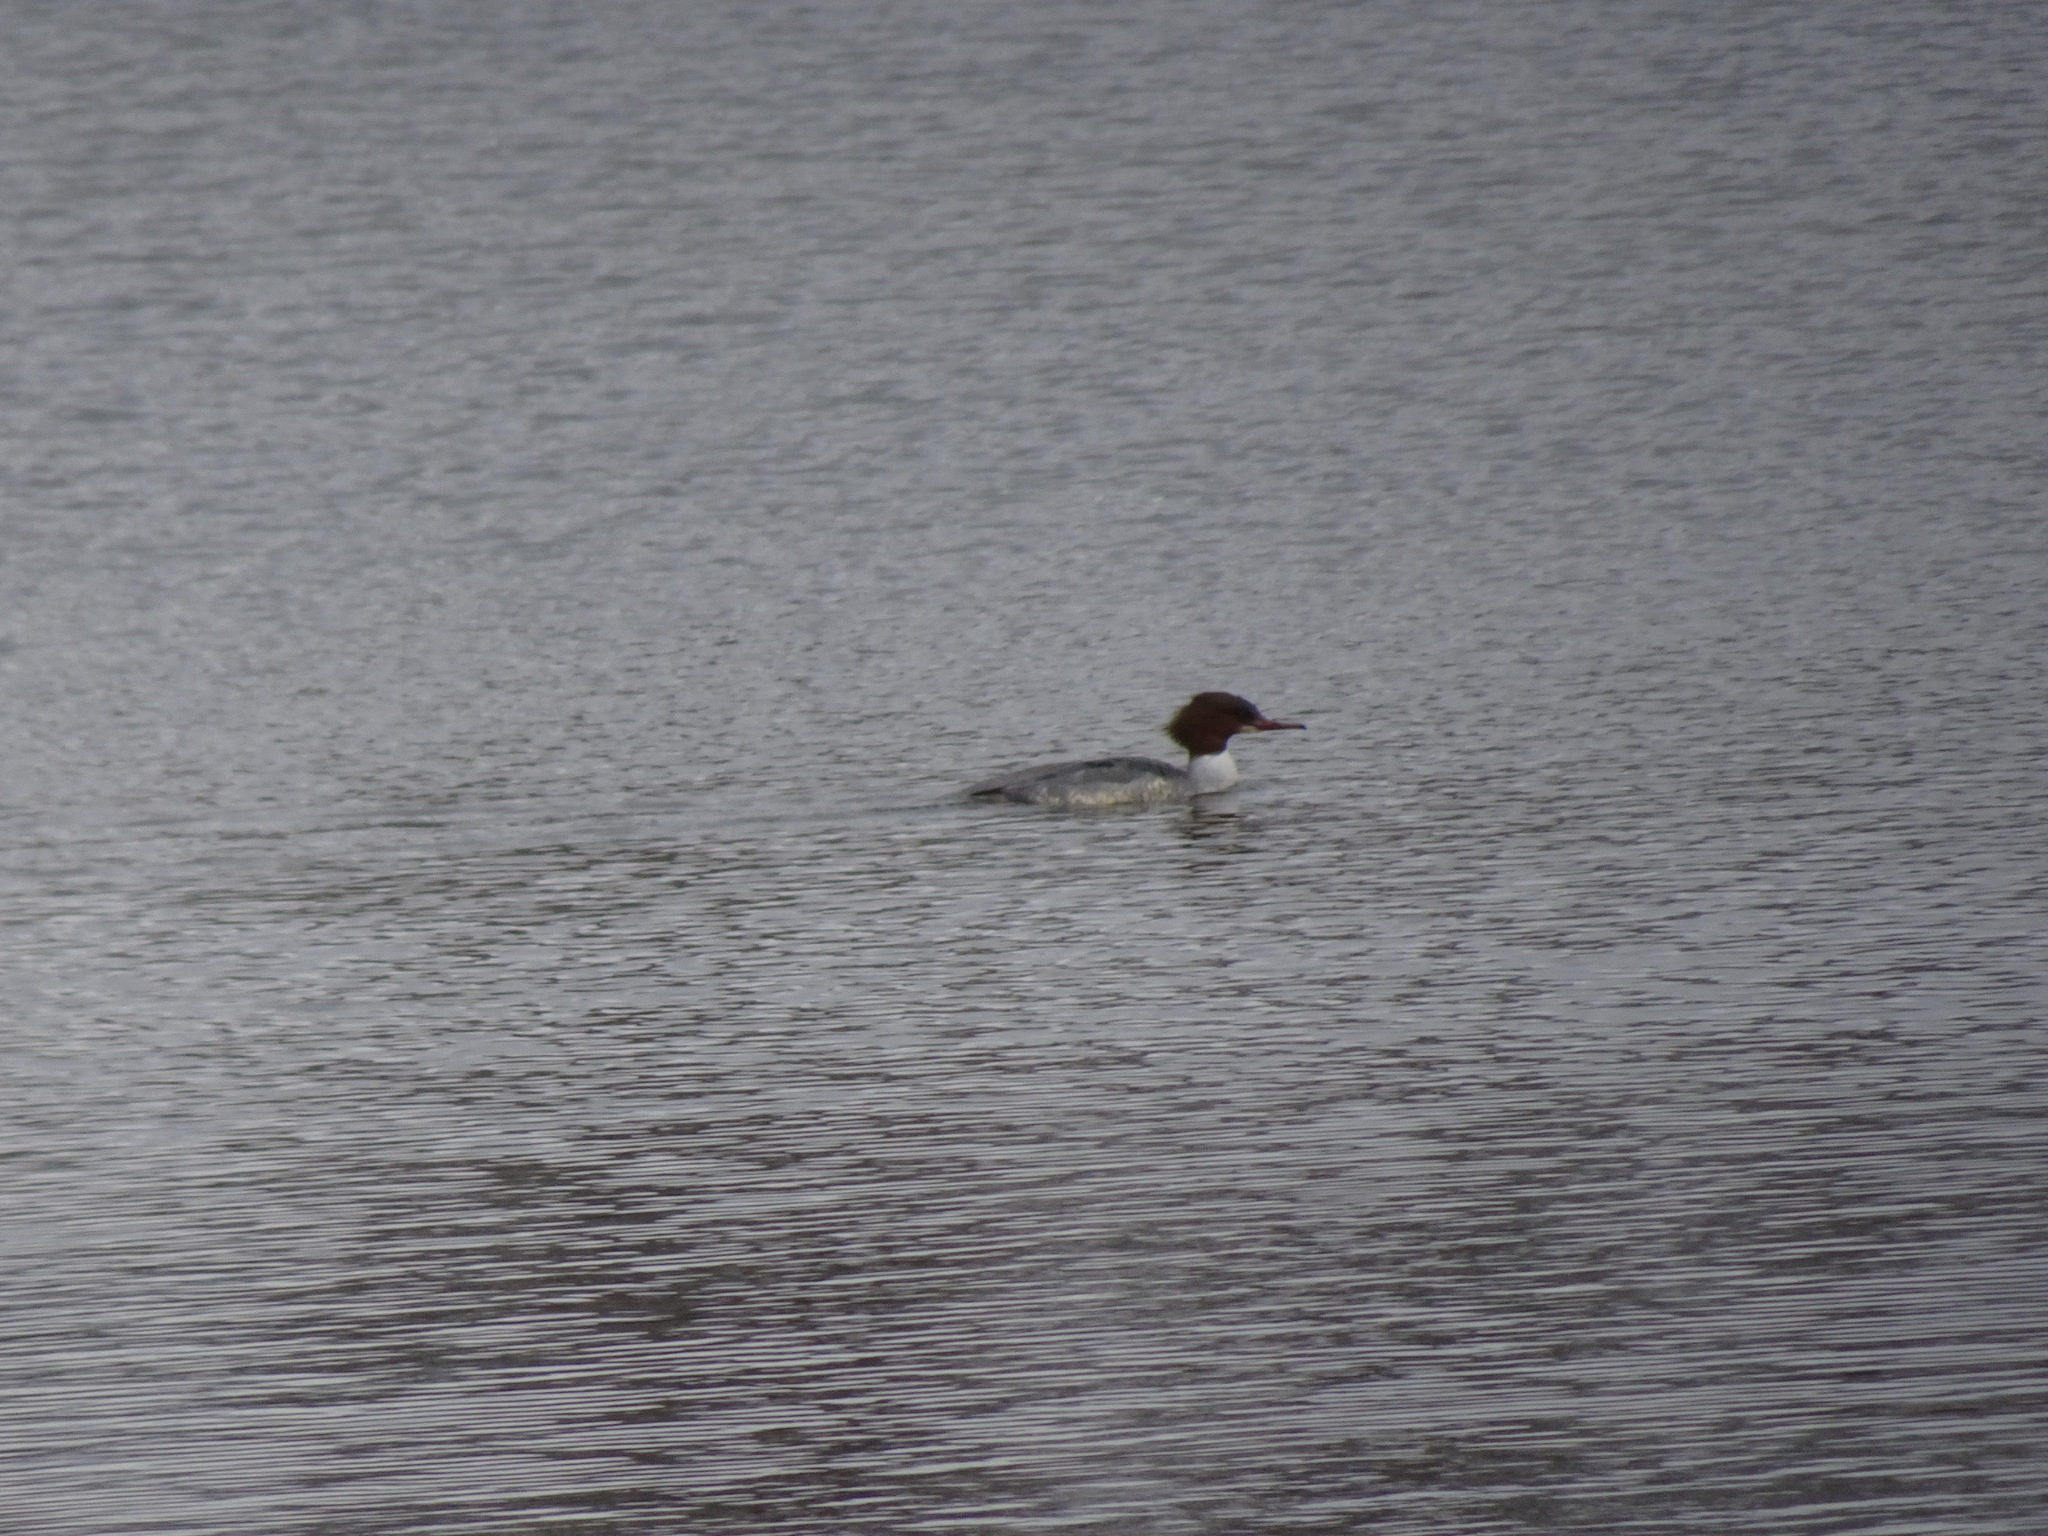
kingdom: Animalia
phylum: Chordata
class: Aves
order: Anseriformes
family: Anatidae
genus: Mergus
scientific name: Mergus merganser
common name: Common merganser
